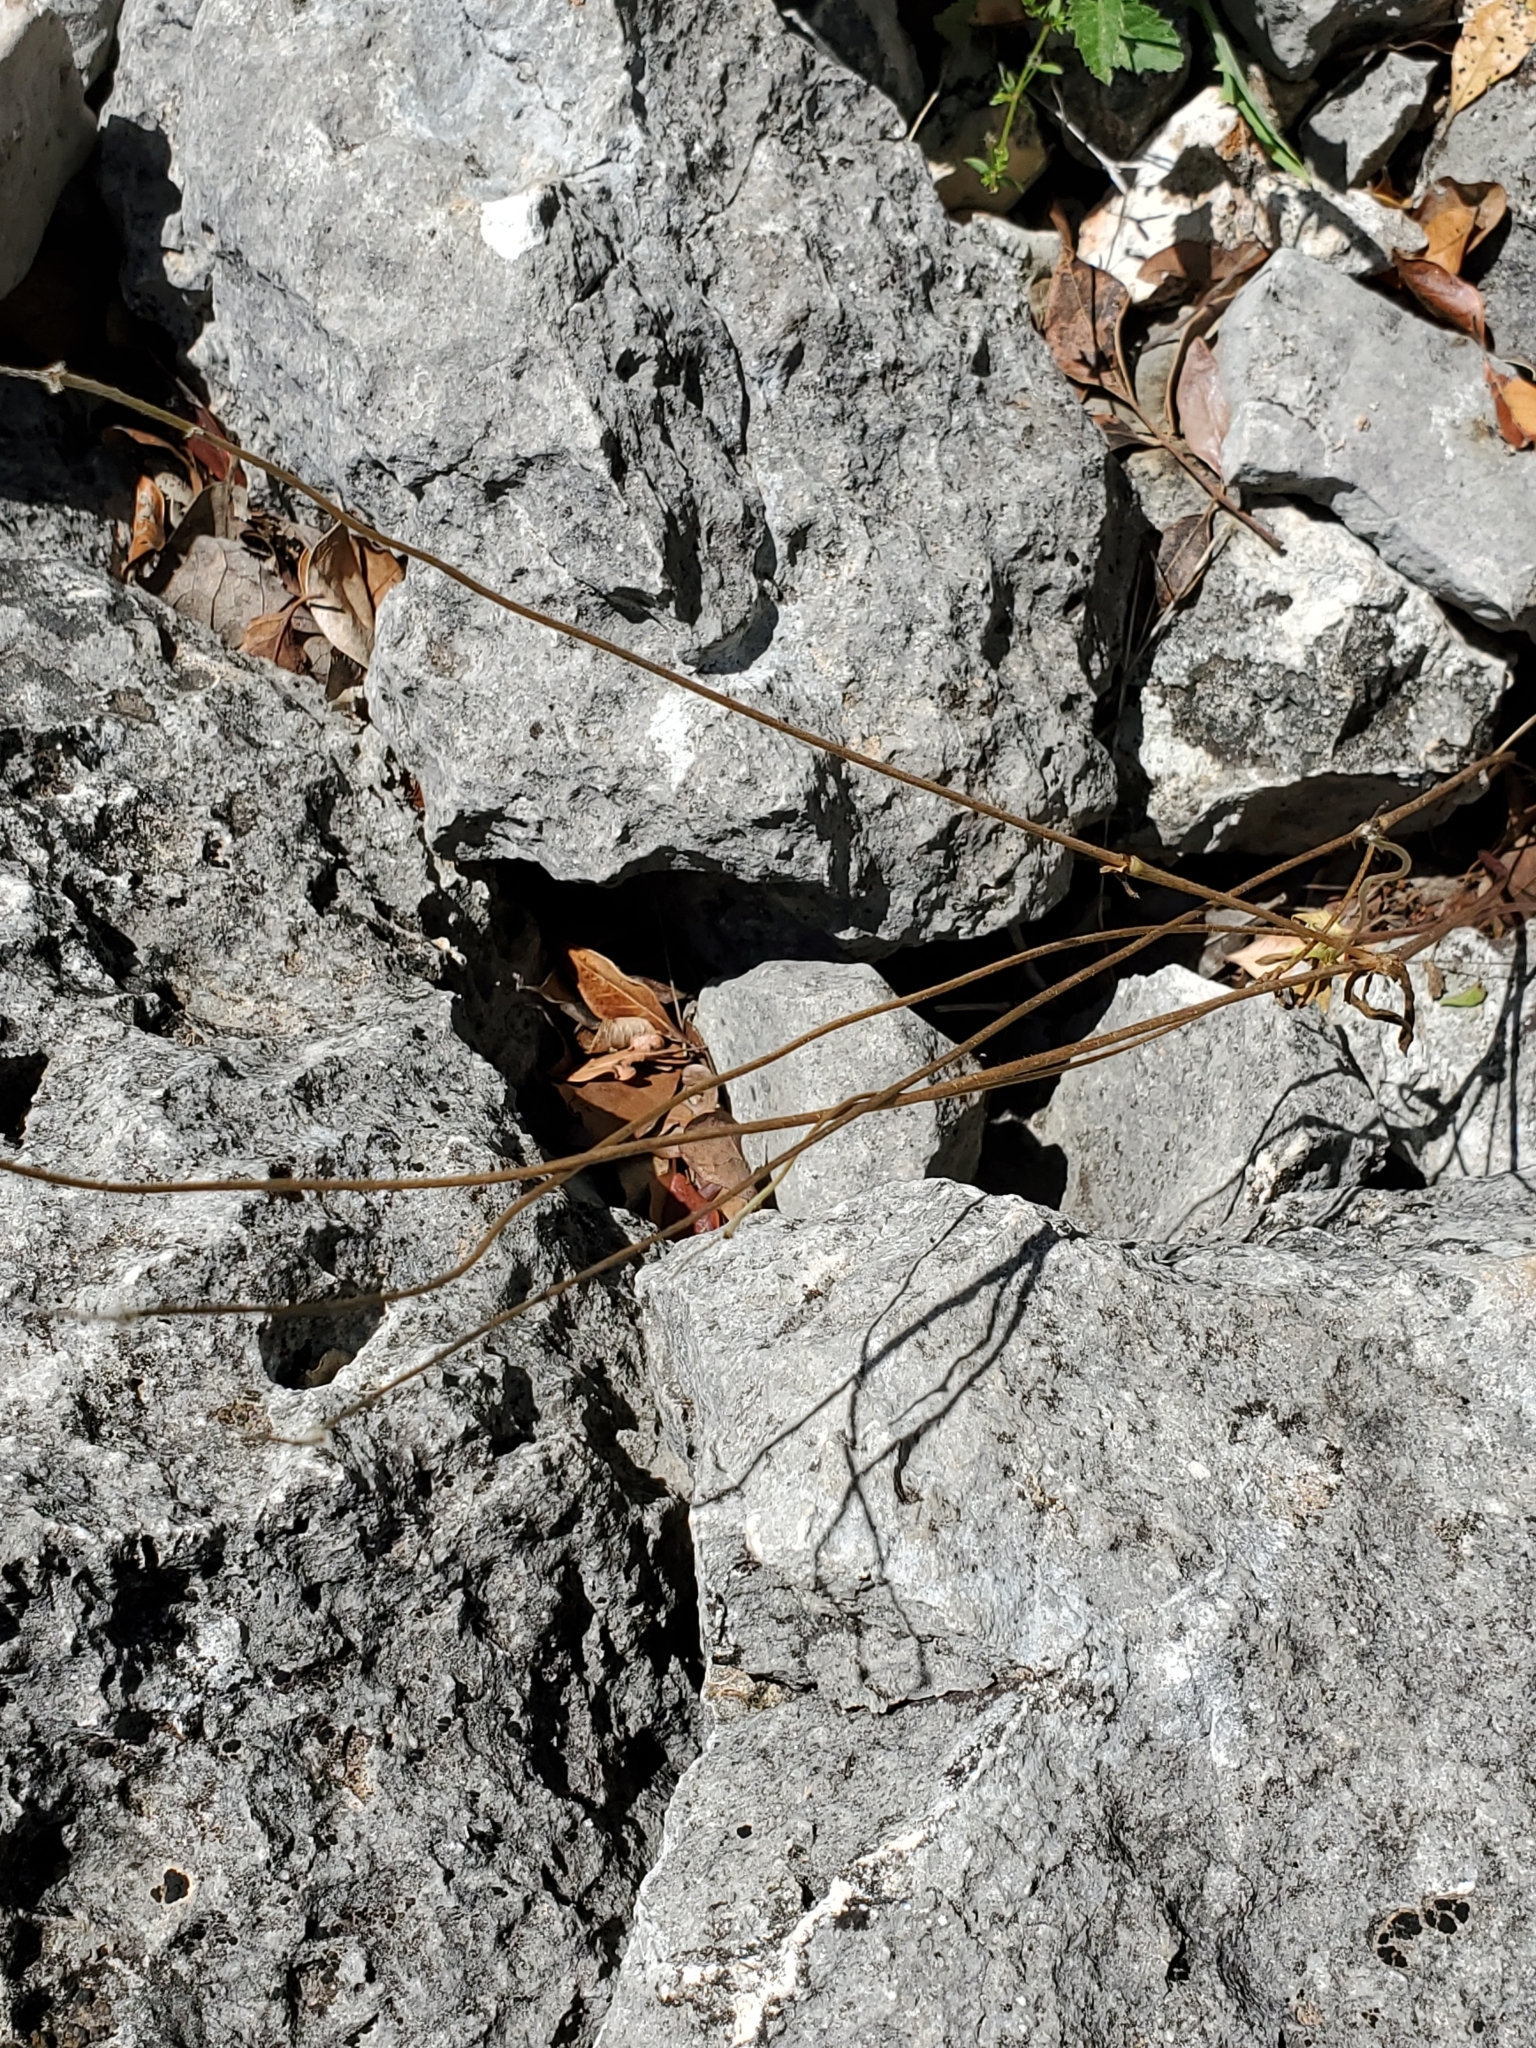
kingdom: Plantae
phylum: Tracheophyta
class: Magnoliopsida
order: Ranunculales
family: Ranunculaceae
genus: Anemone
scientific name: Anemone edwardsiana
